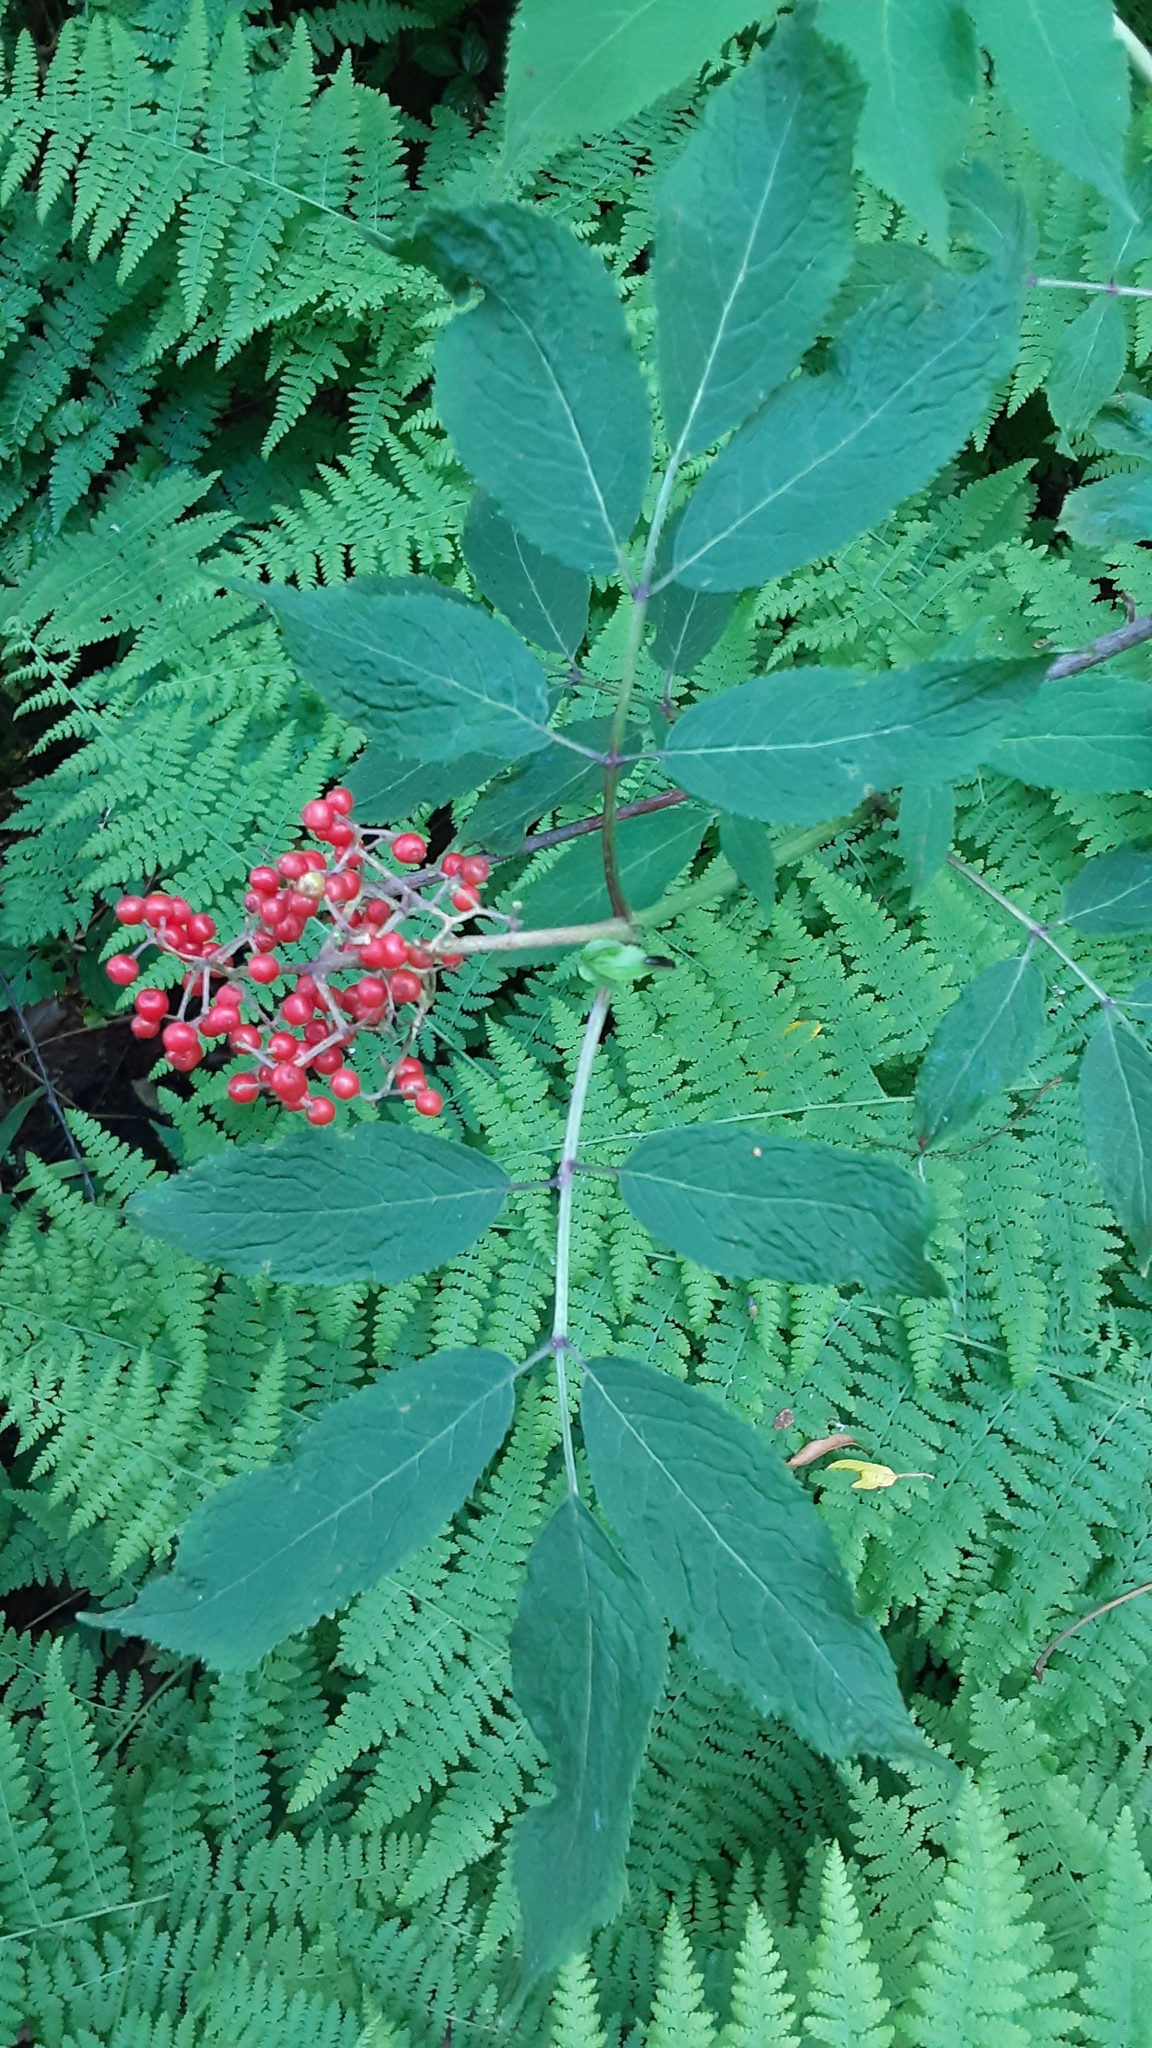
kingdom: Plantae
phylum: Tracheophyta
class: Magnoliopsida
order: Dipsacales
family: Viburnaceae
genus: Sambucus
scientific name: Sambucus racemosa
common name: Red-berried elder
